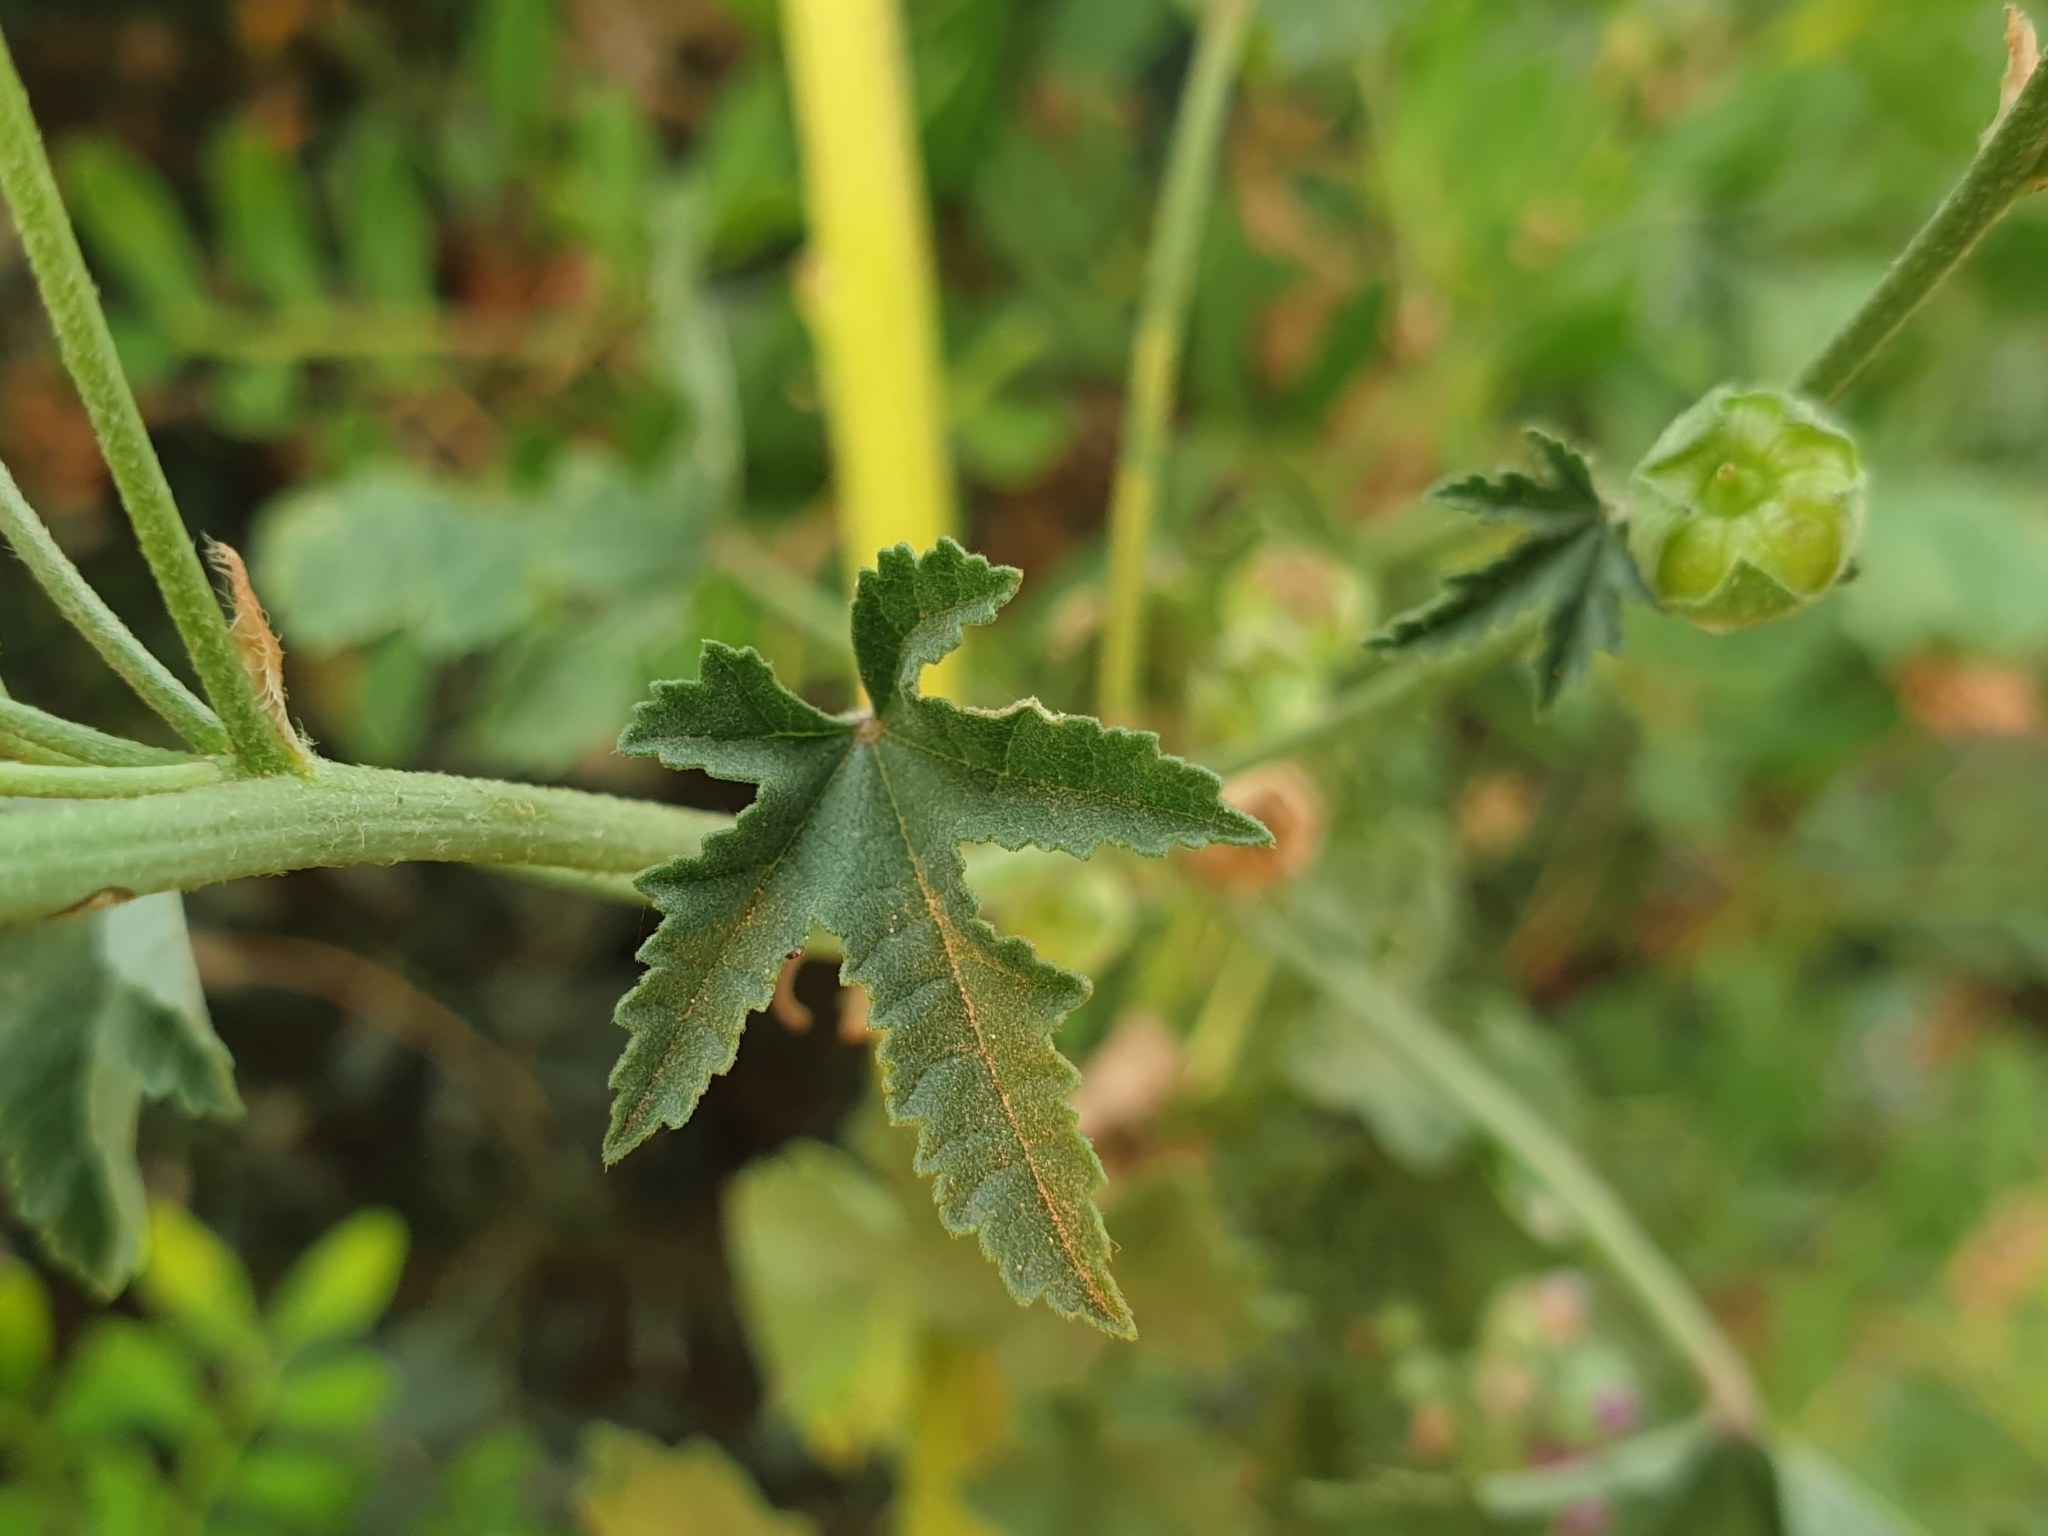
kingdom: Plantae
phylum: Tracheophyta
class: Magnoliopsida
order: Malvales
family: Malvaceae
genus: Malva
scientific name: Malva sylvestris
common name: Common mallow
